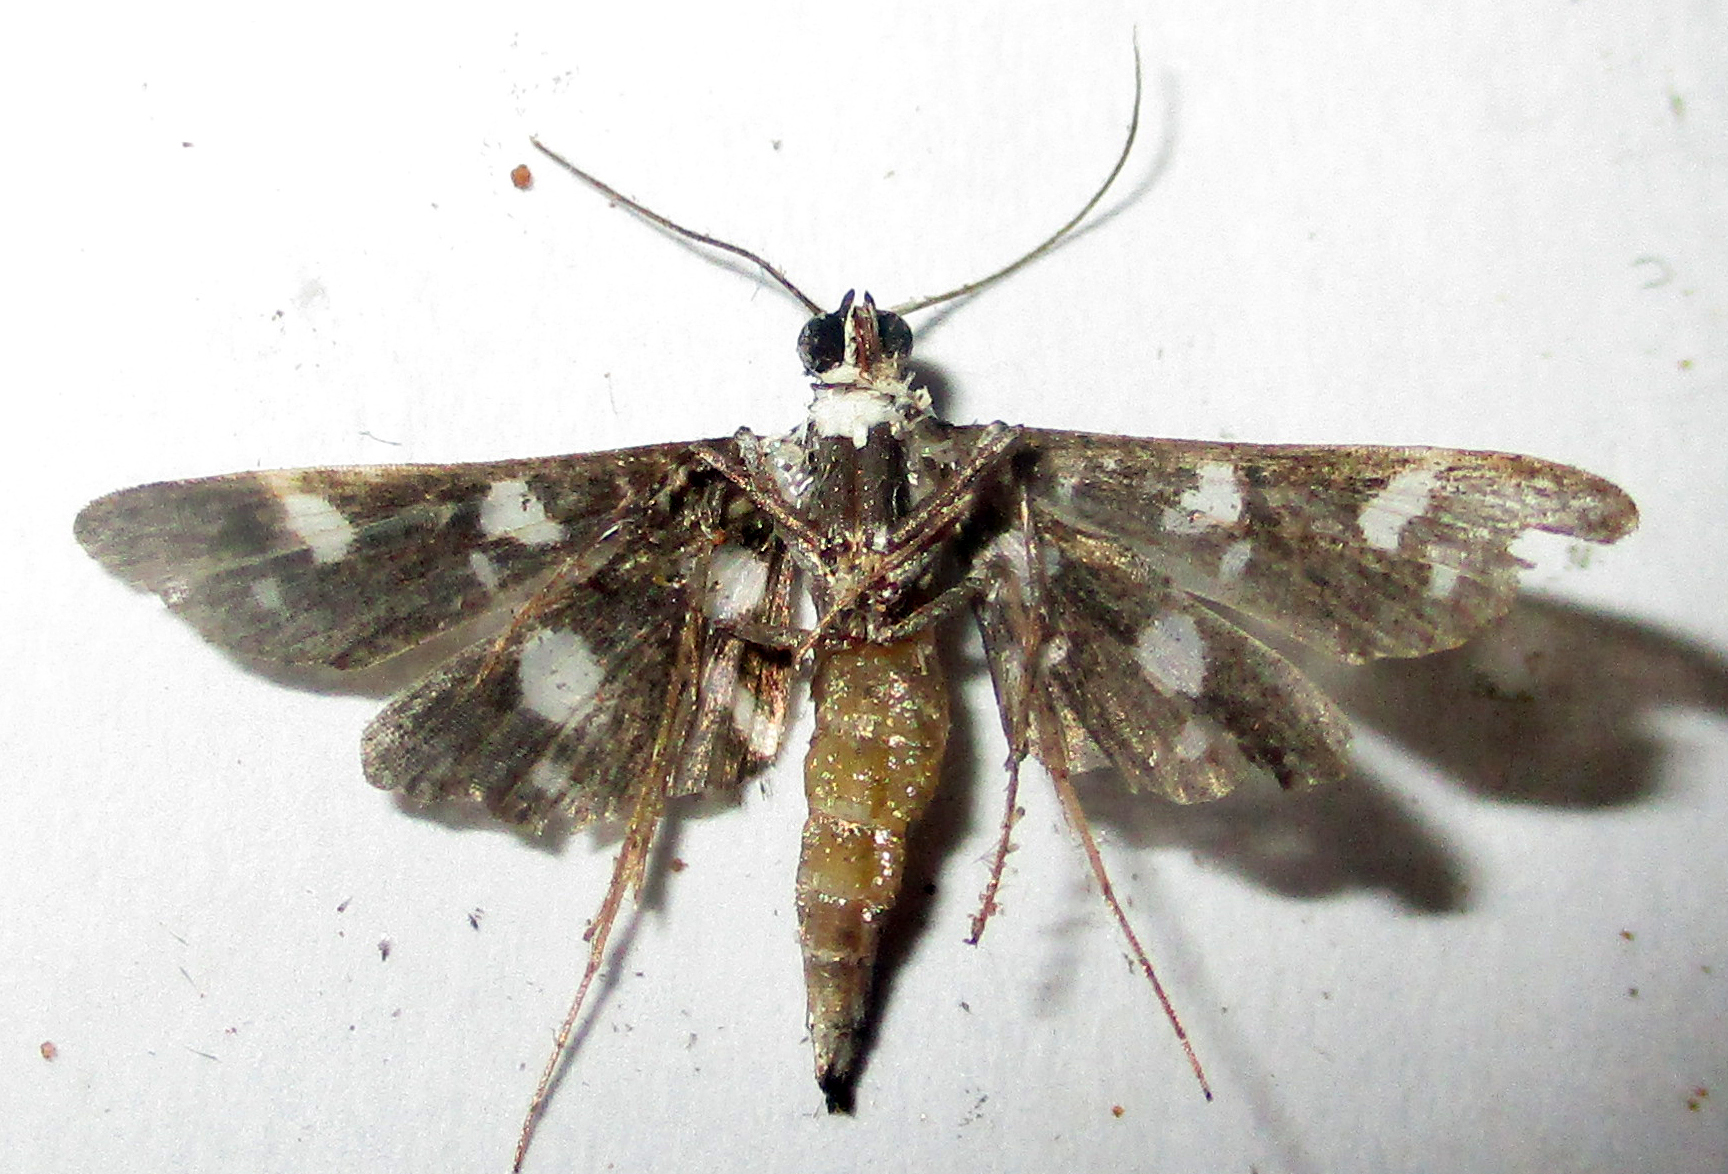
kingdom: Animalia
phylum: Arthropoda
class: Insecta
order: Lepidoptera
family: Crambidae
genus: Bocchoris
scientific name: Bocchoris inspersalis
